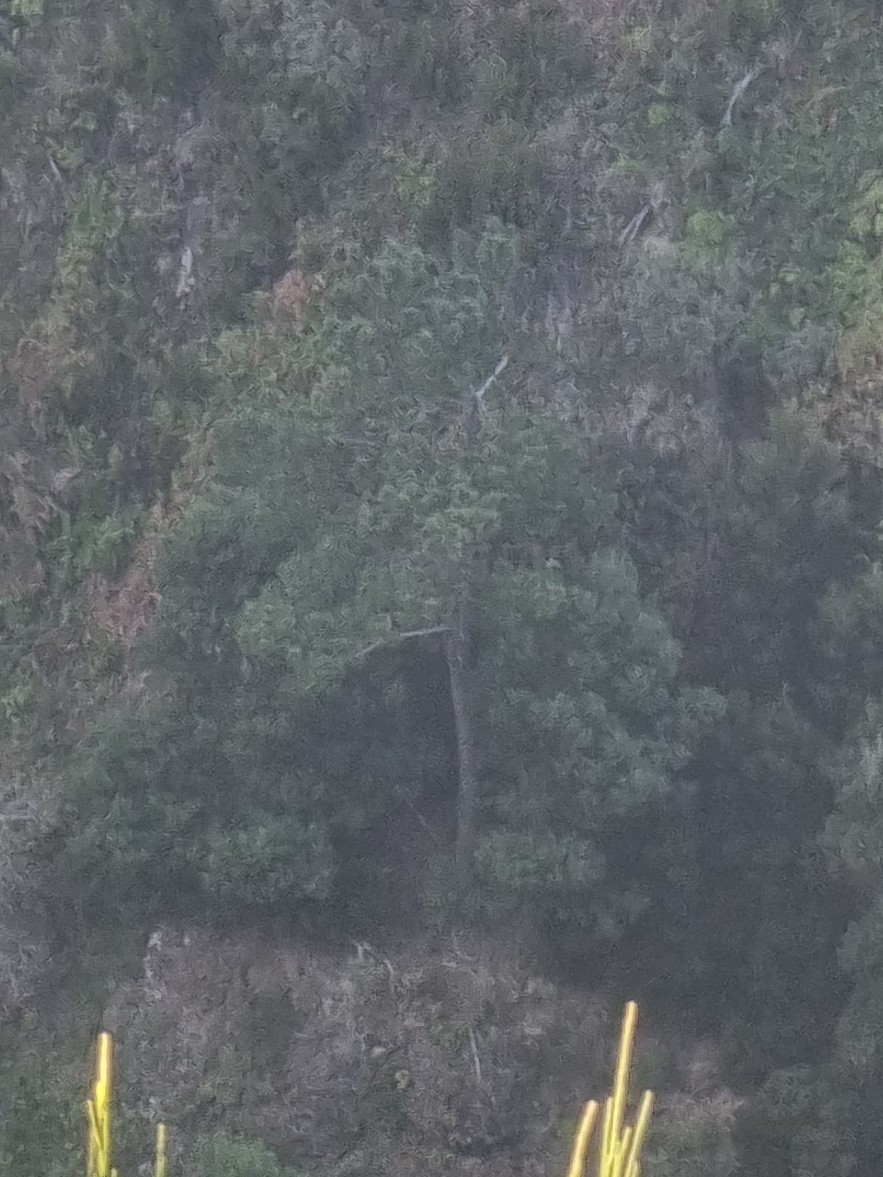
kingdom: Plantae
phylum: Tracheophyta
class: Pinopsida
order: Pinales
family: Pinaceae
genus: Pinus
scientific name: Pinus pinaster
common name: Maritime pine
